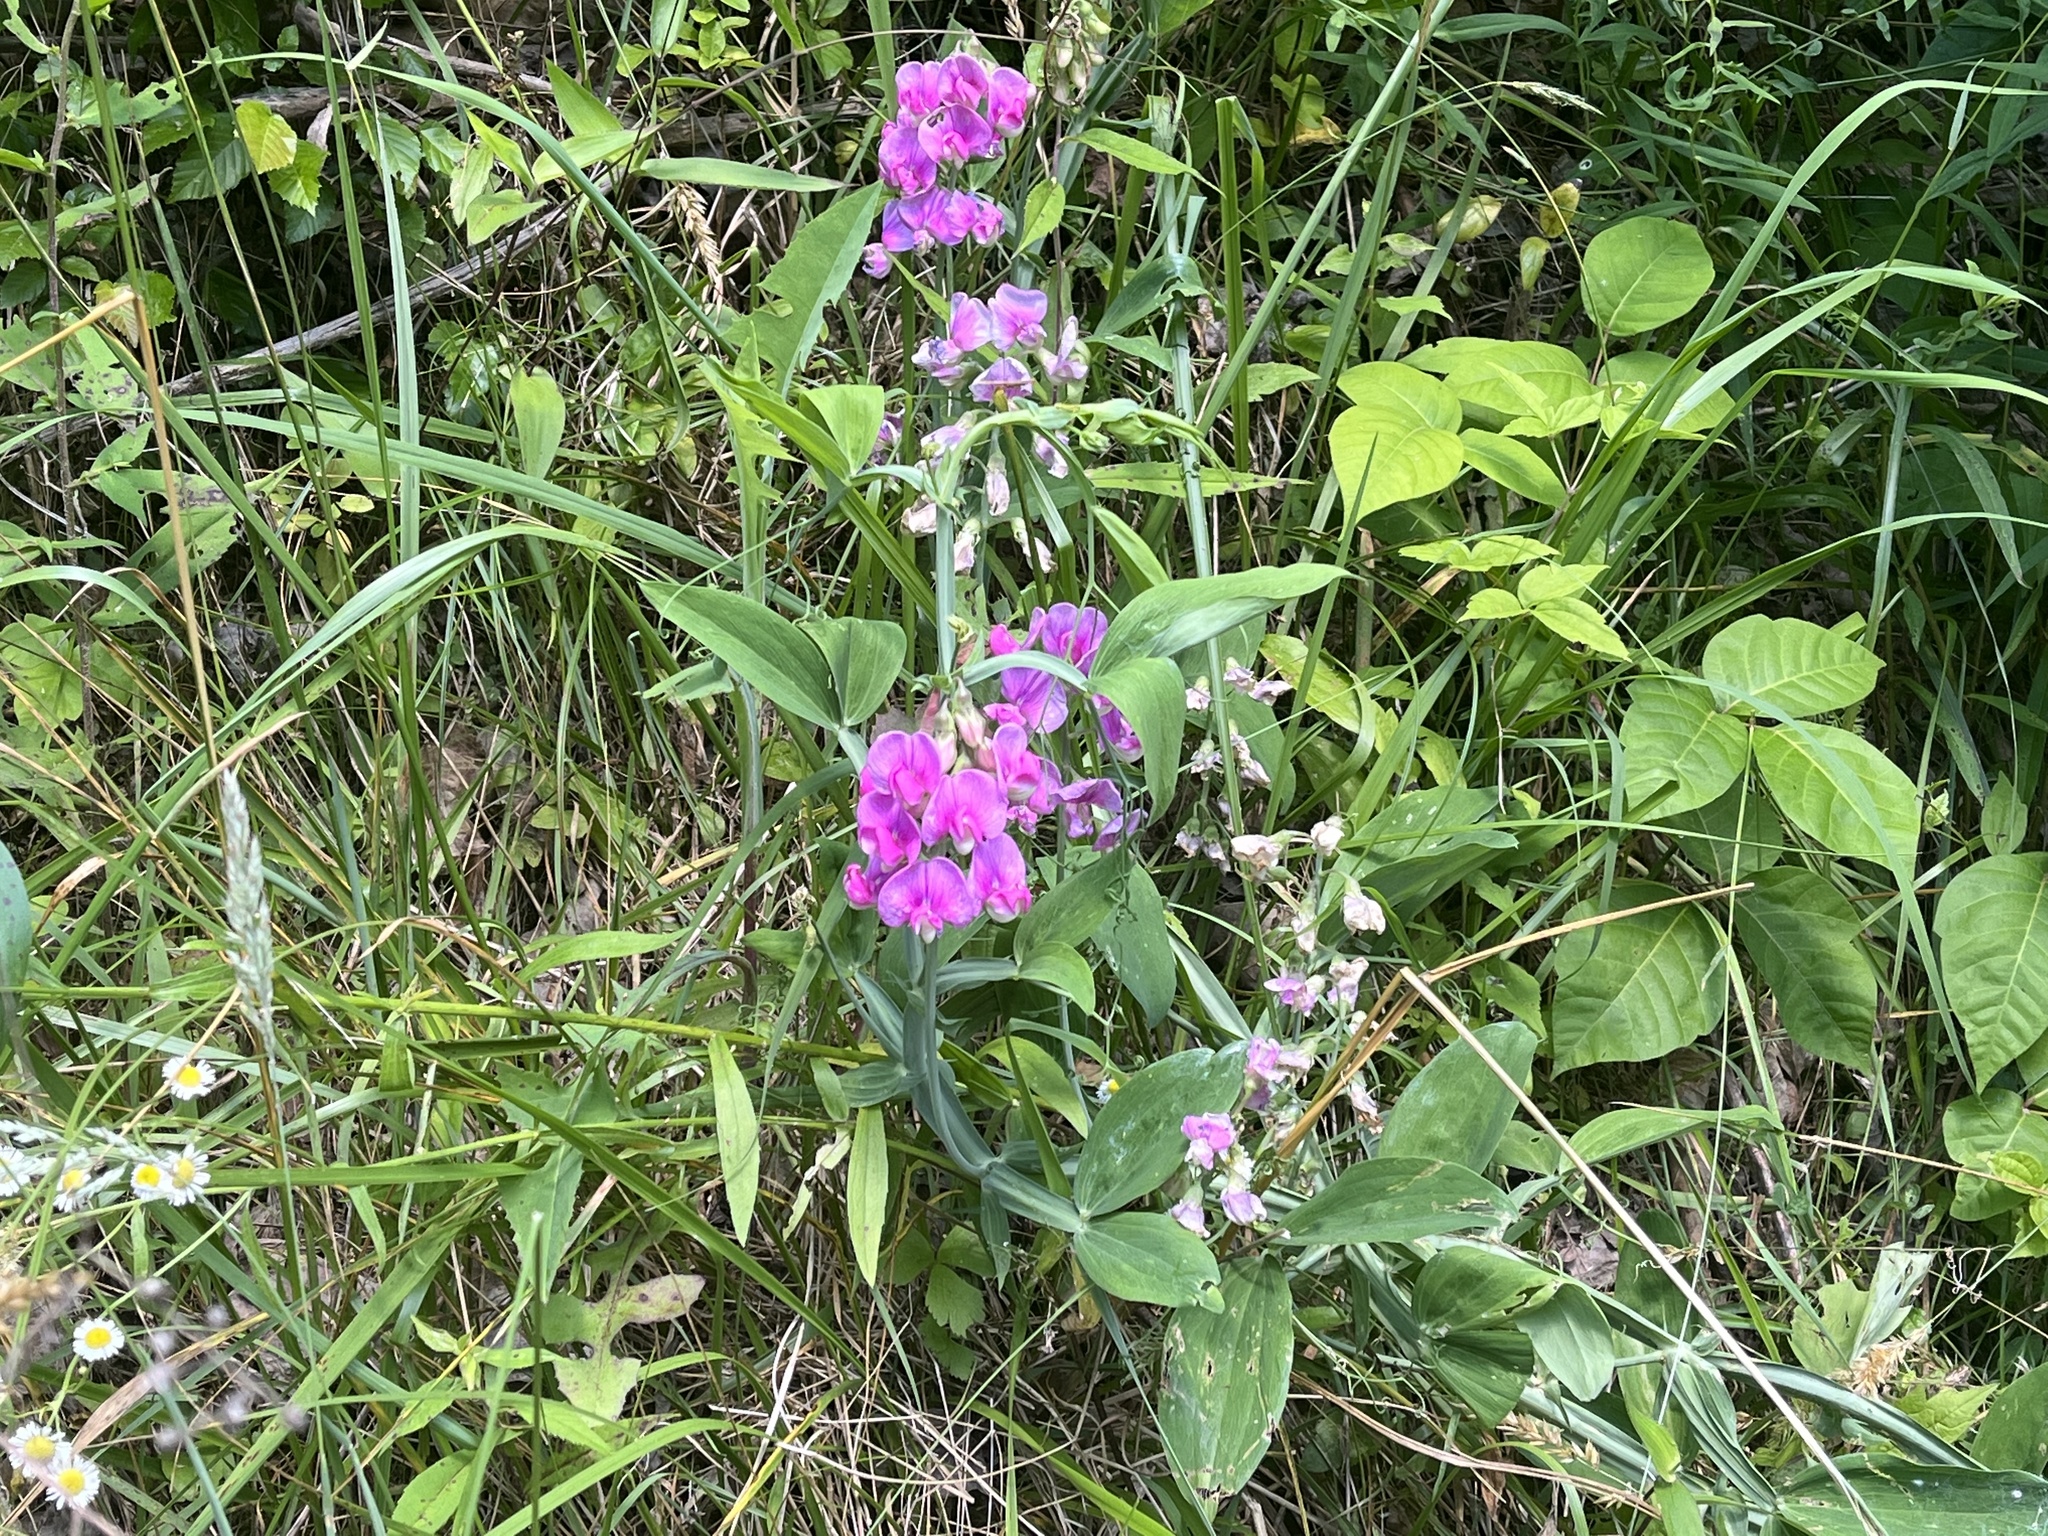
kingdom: Plantae
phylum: Tracheophyta
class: Magnoliopsida
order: Fabales
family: Fabaceae
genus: Lathyrus
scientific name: Lathyrus latifolius
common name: Perennial pea
